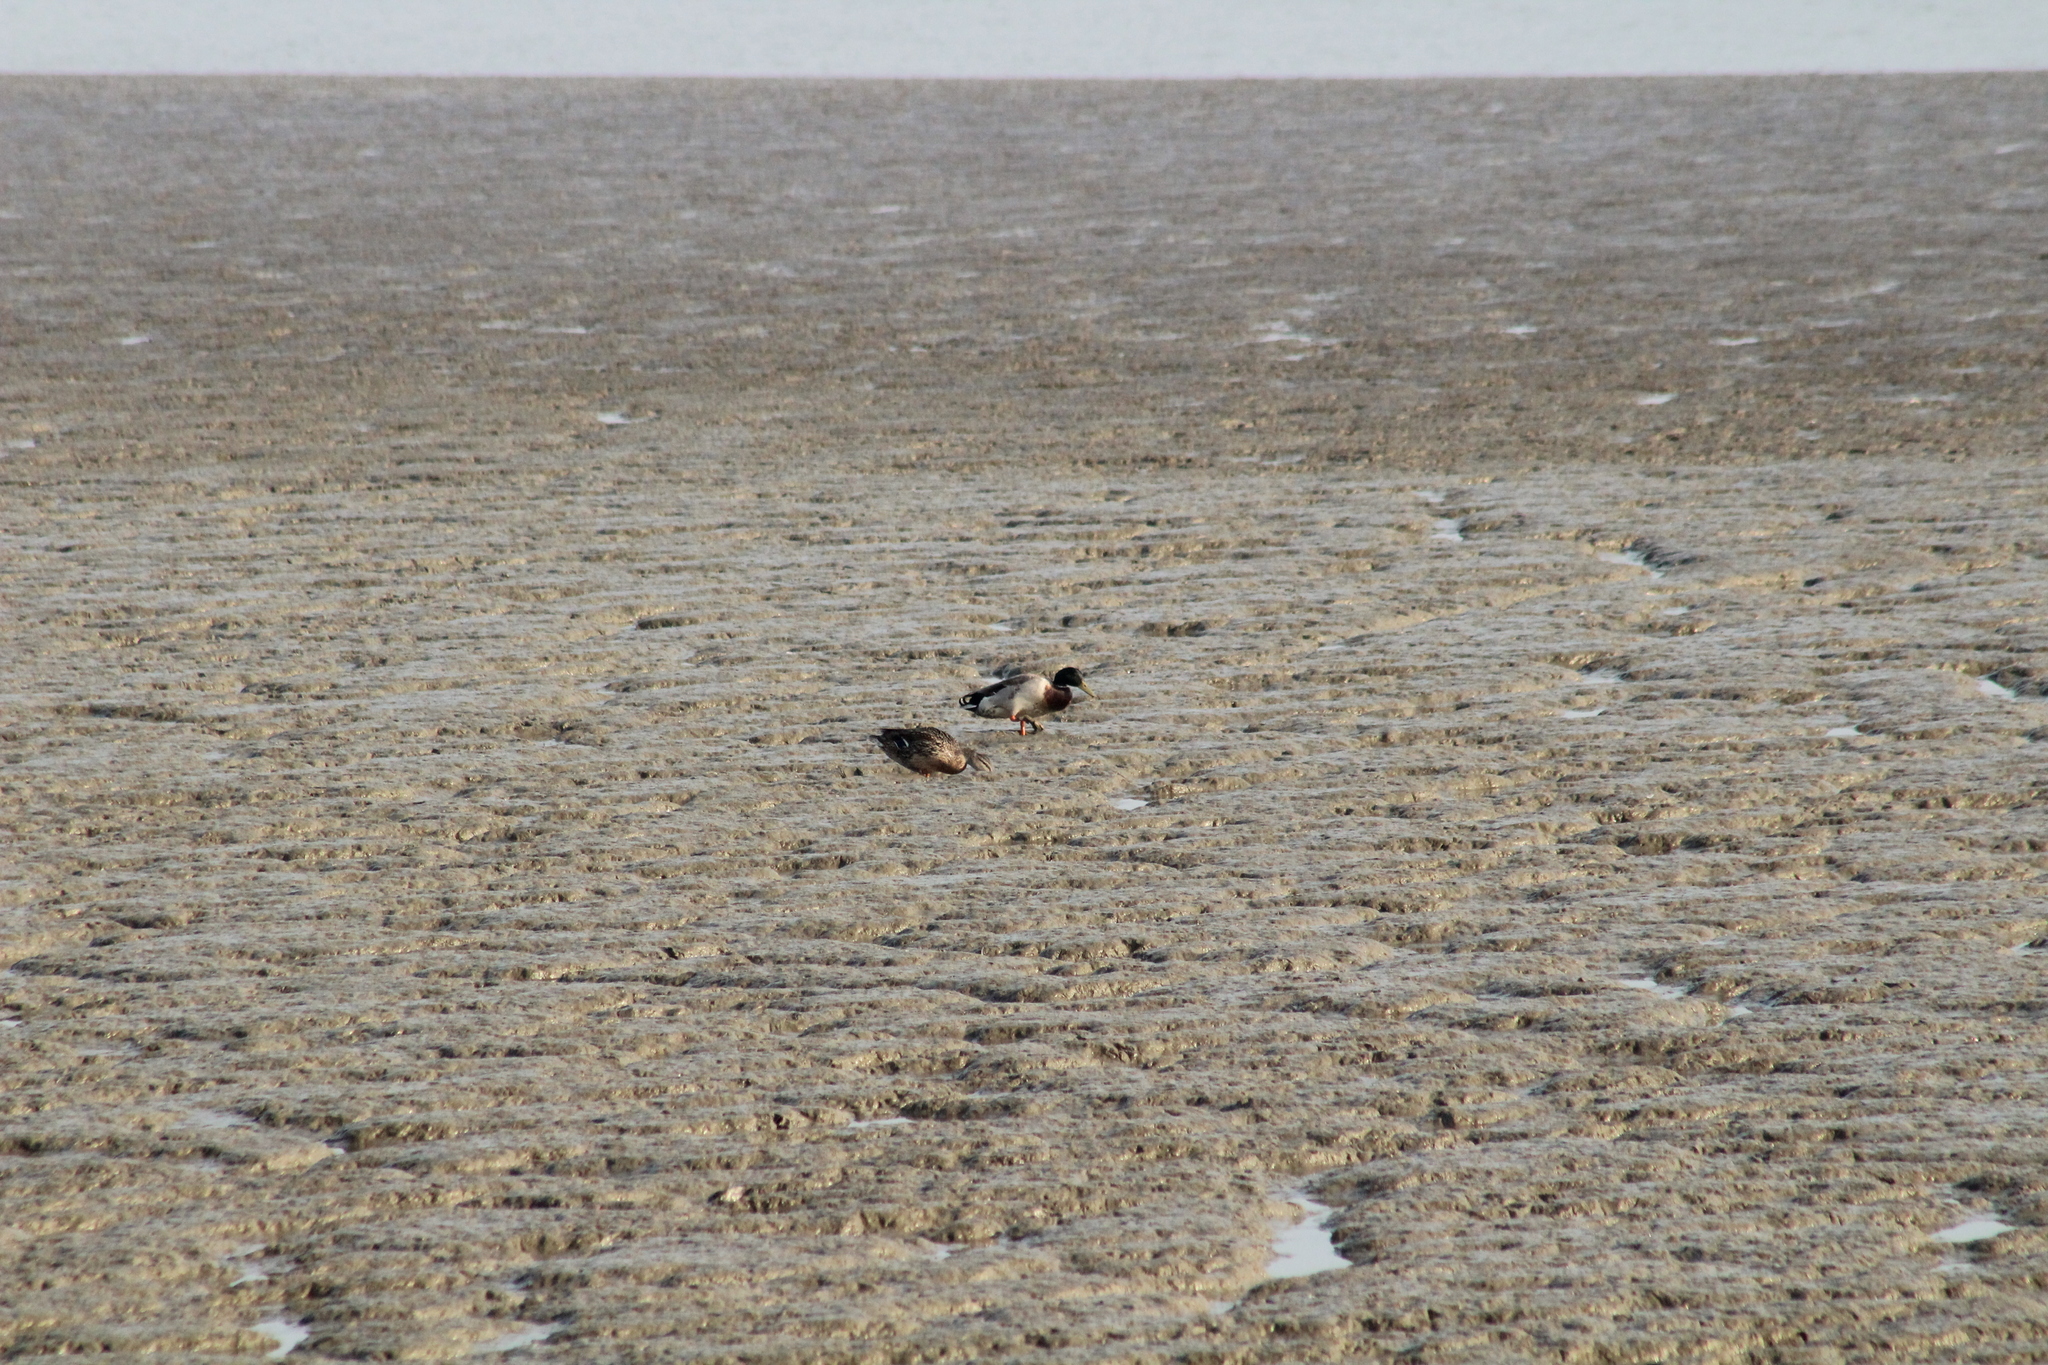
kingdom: Animalia
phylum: Chordata
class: Aves
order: Anseriformes
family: Anatidae
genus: Anas
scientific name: Anas platyrhynchos
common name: Mallard
